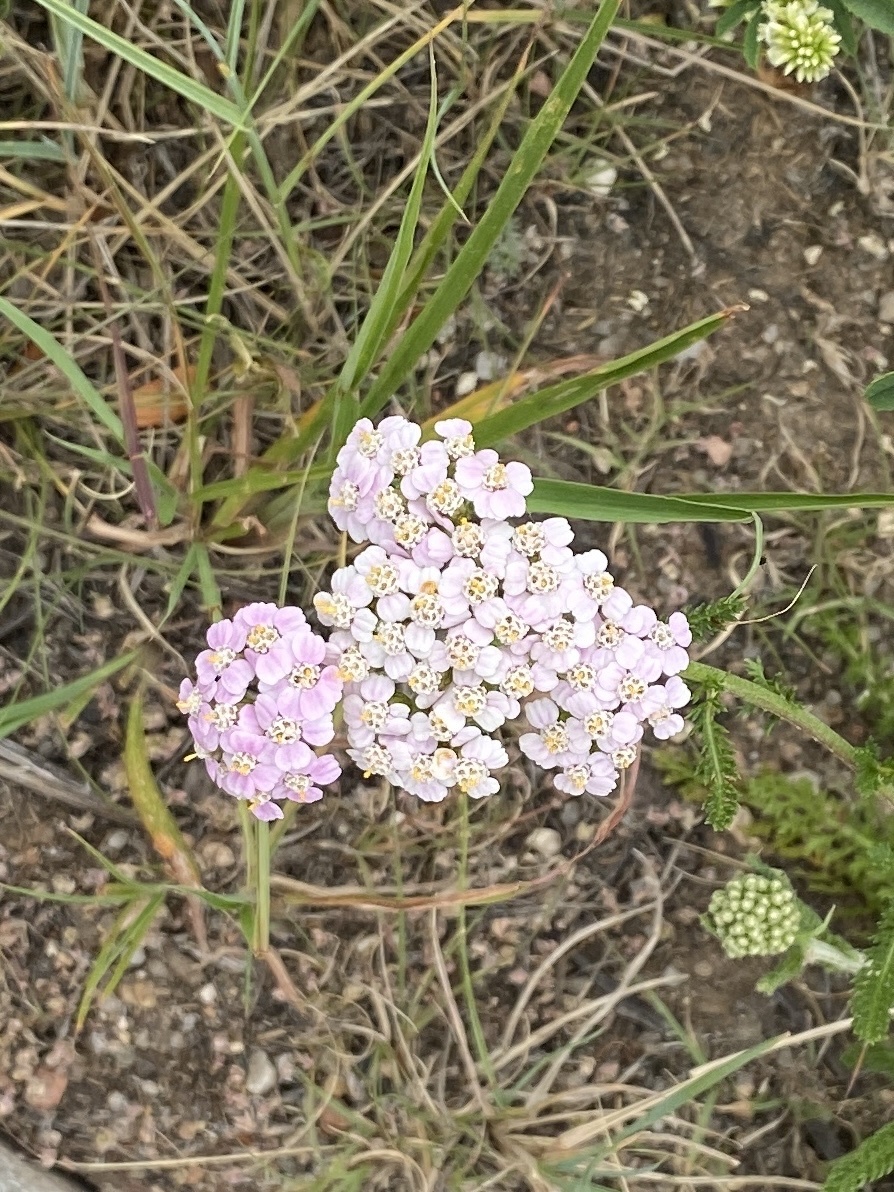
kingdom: Plantae
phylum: Tracheophyta
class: Magnoliopsida
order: Asterales
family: Asteraceae
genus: Achillea
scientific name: Achillea millefolium
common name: Yarrow
